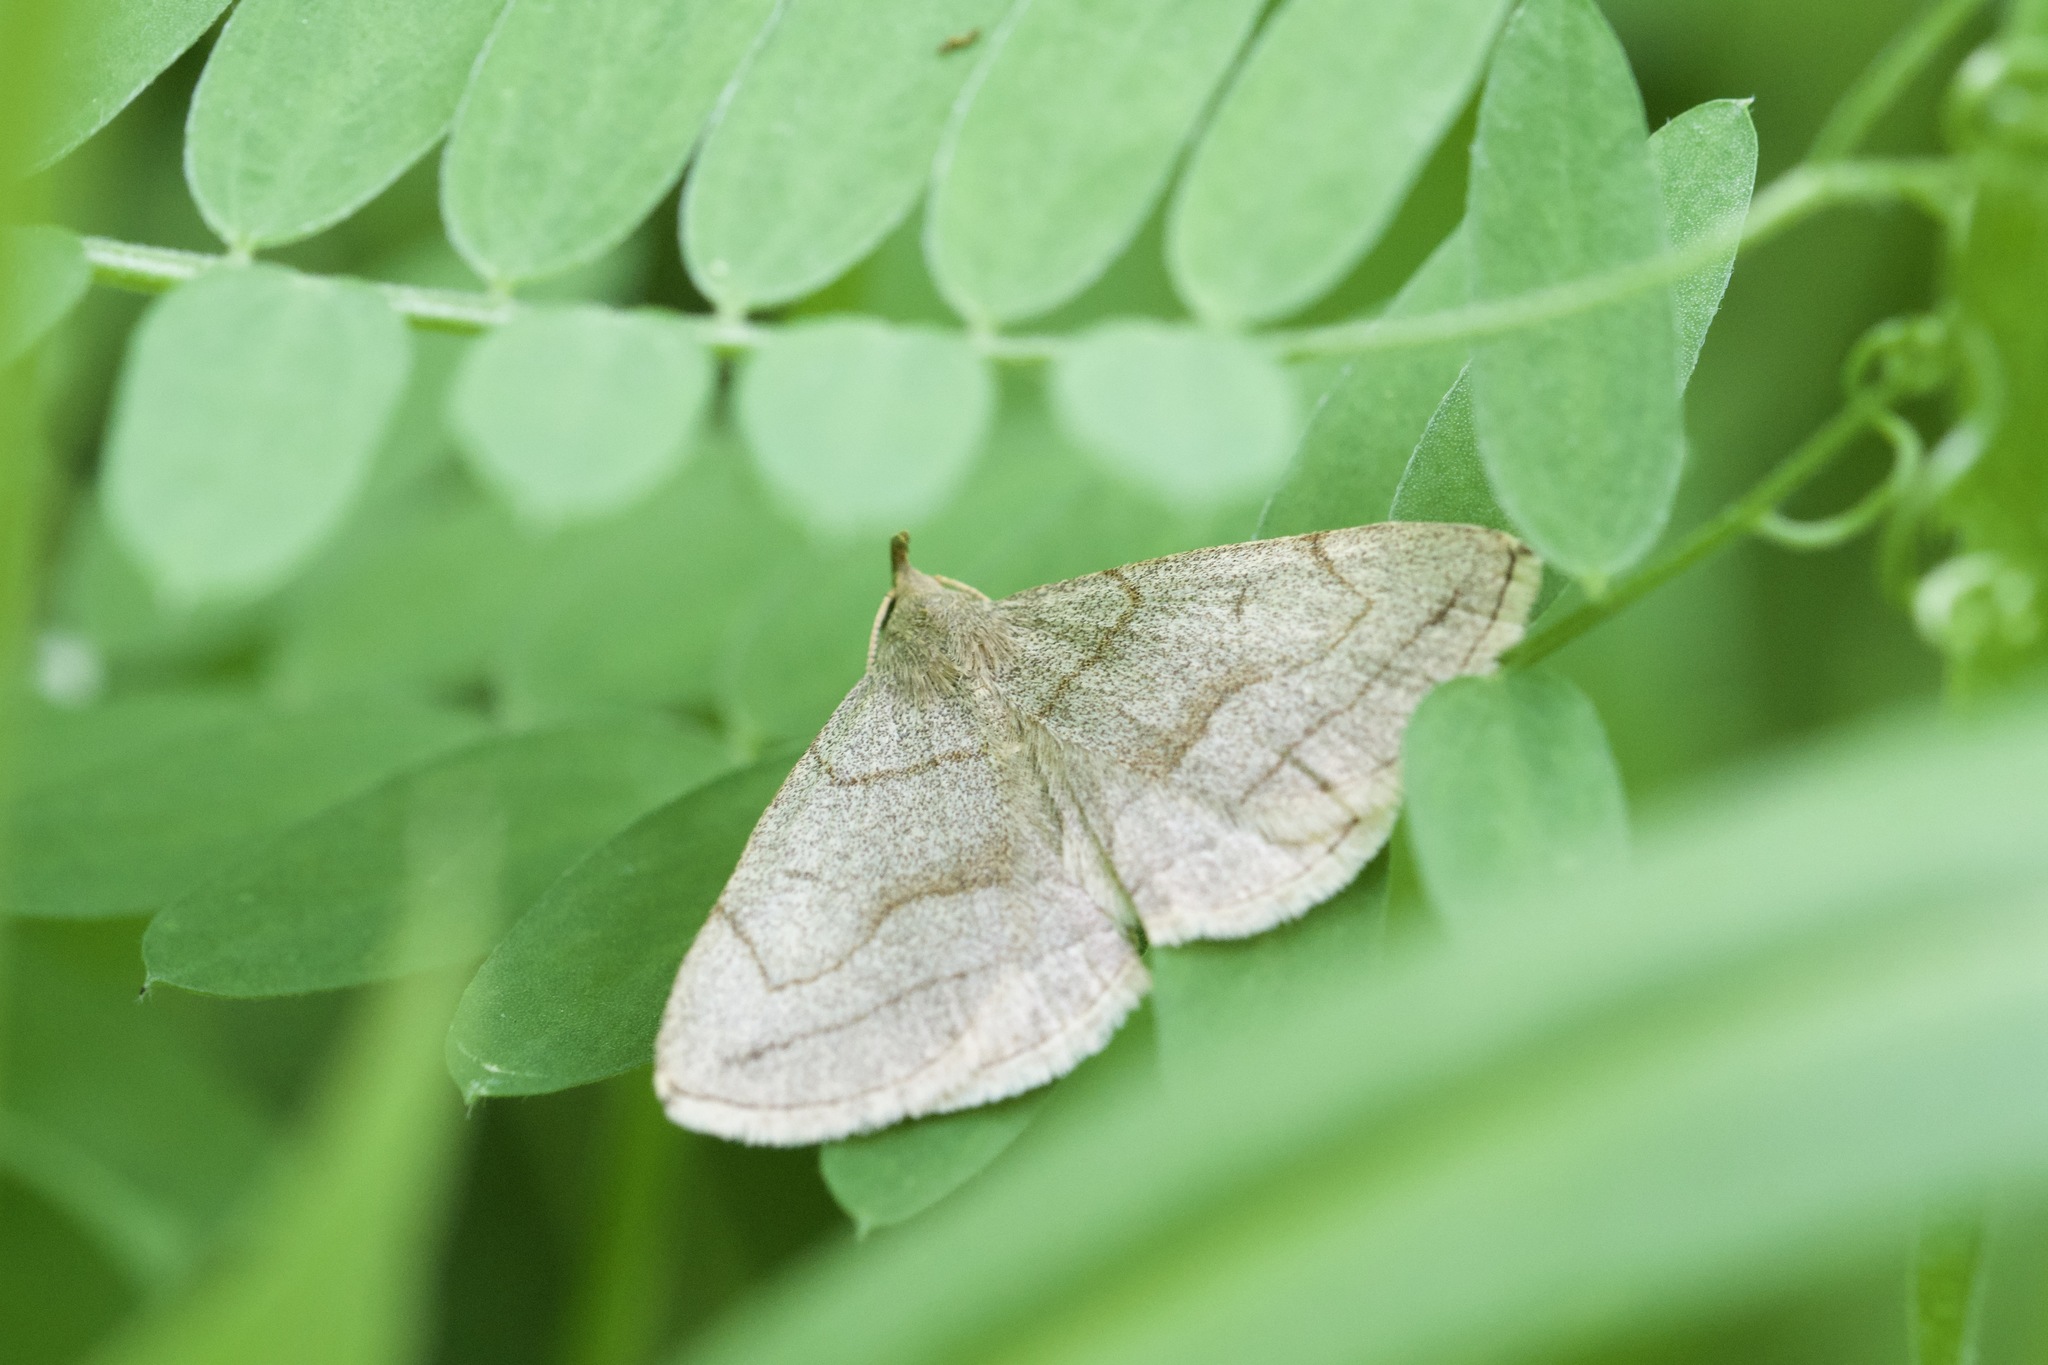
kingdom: Animalia
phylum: Arthropoda
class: Insecta
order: Lepidoptera
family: Erebidae
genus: Zanclognatha
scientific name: Zanclognatha pedipilalis
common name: Grayish fan-foot
